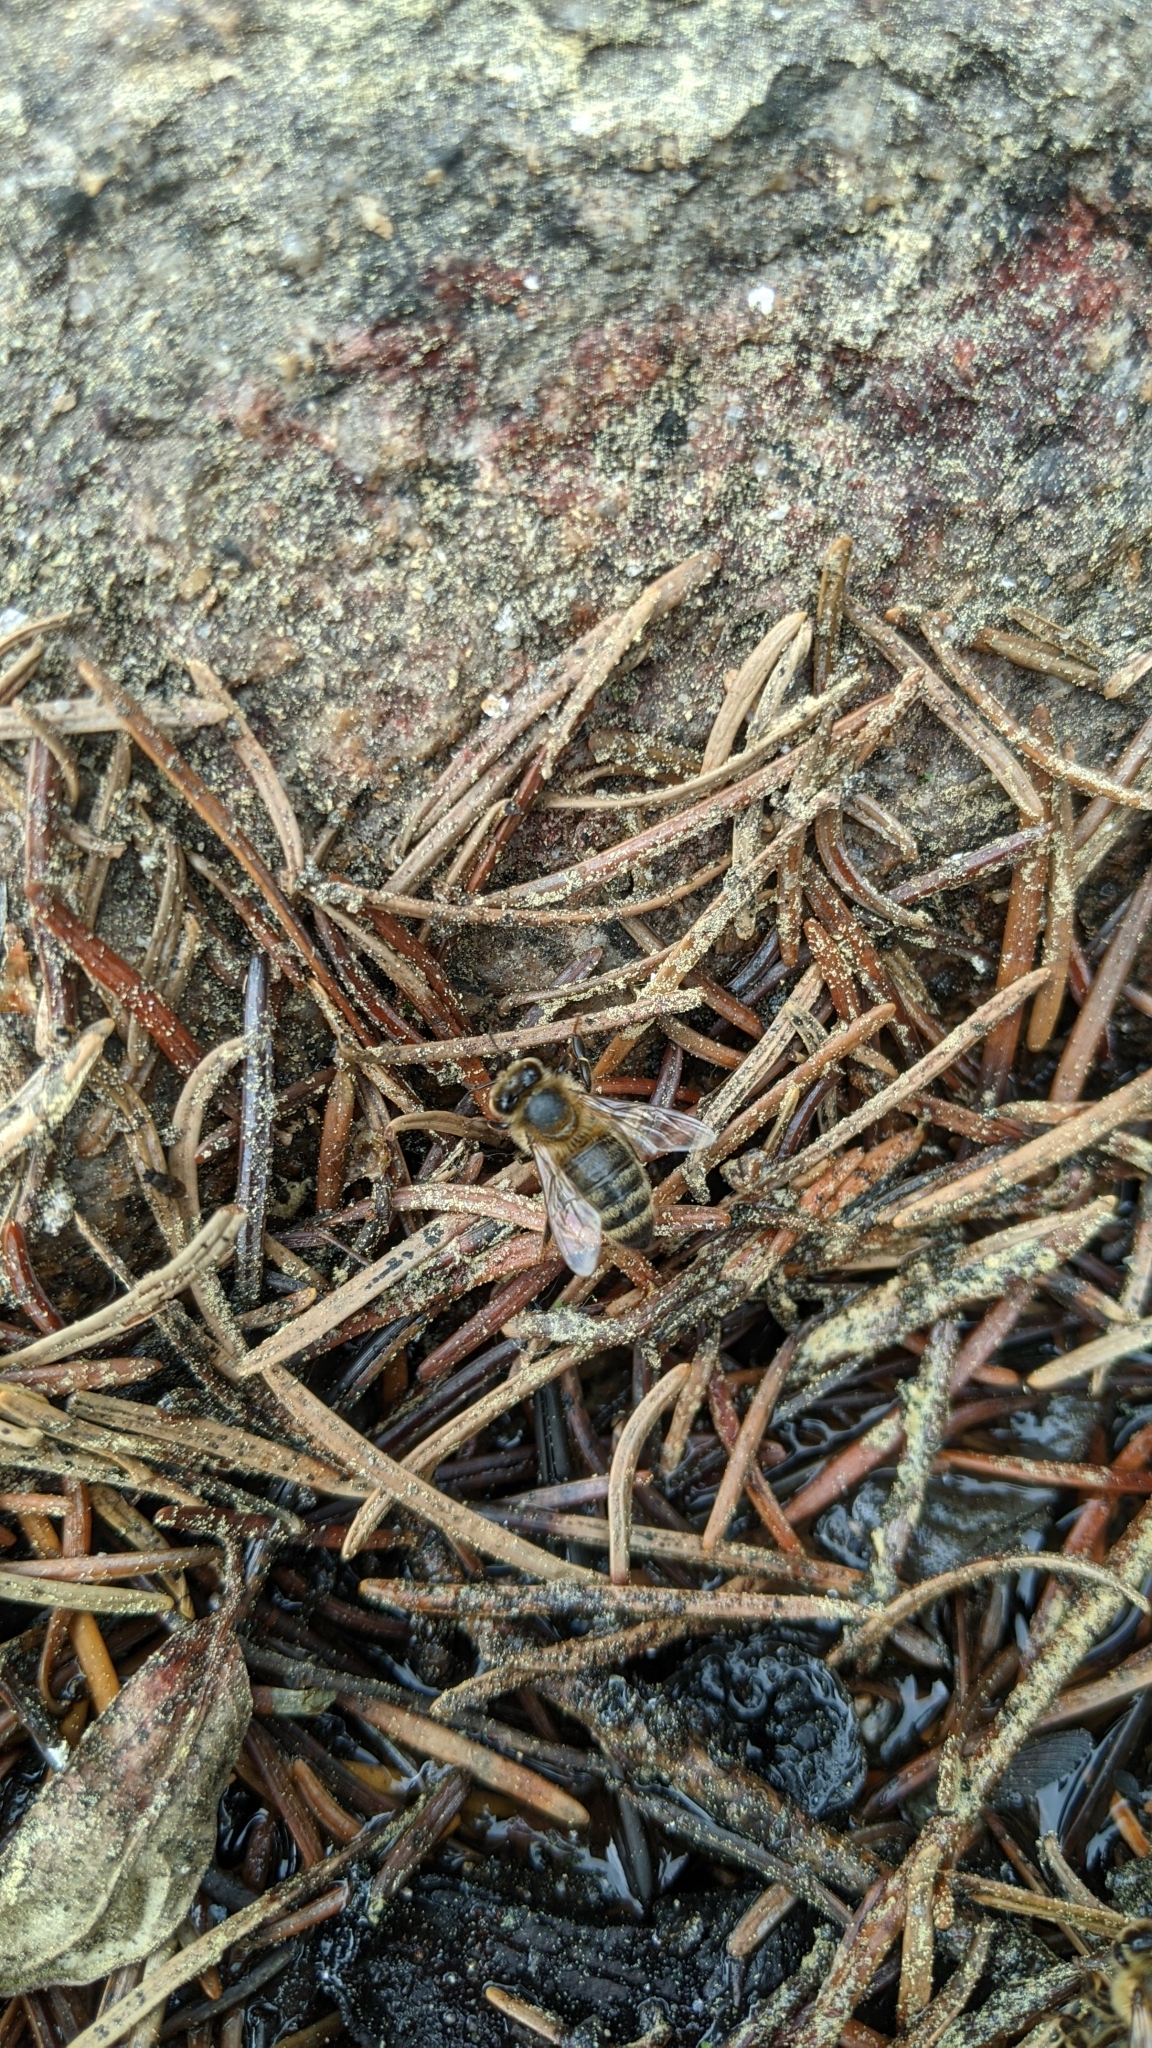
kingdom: Animalia
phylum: Arthropoda
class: Insecta
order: Hymenoptera
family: Apidae
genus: Apis
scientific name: Apis mellifera
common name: Honey bee
